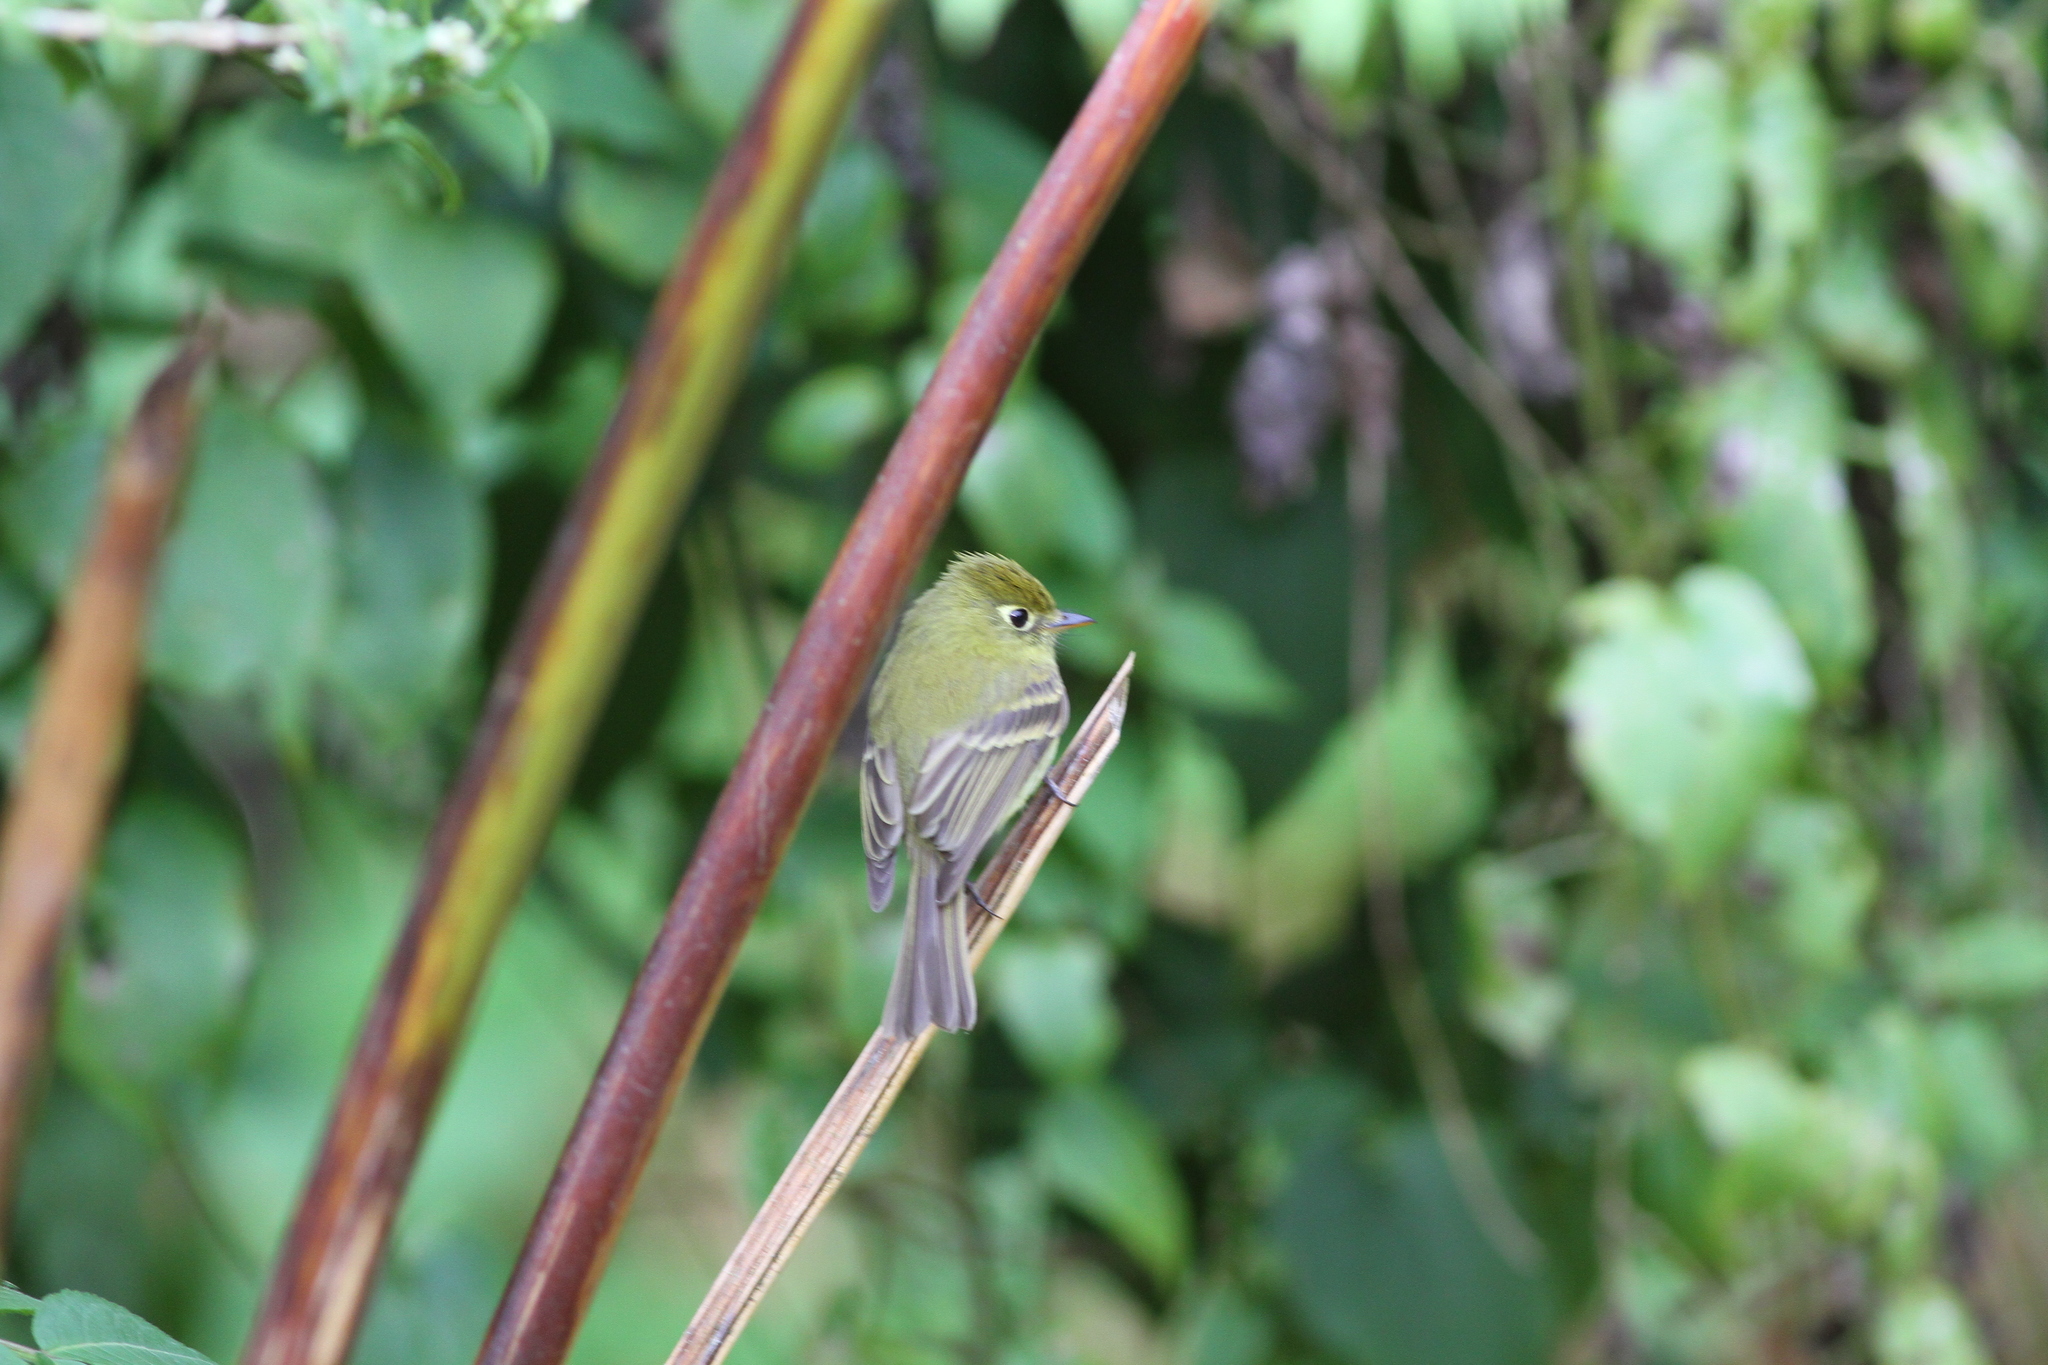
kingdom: Animalia
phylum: Chordata
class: Aves
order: Passeriformes
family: Tyrannidae
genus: Empidonax
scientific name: Empidonax flavescens
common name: Yellowish flycatcher
